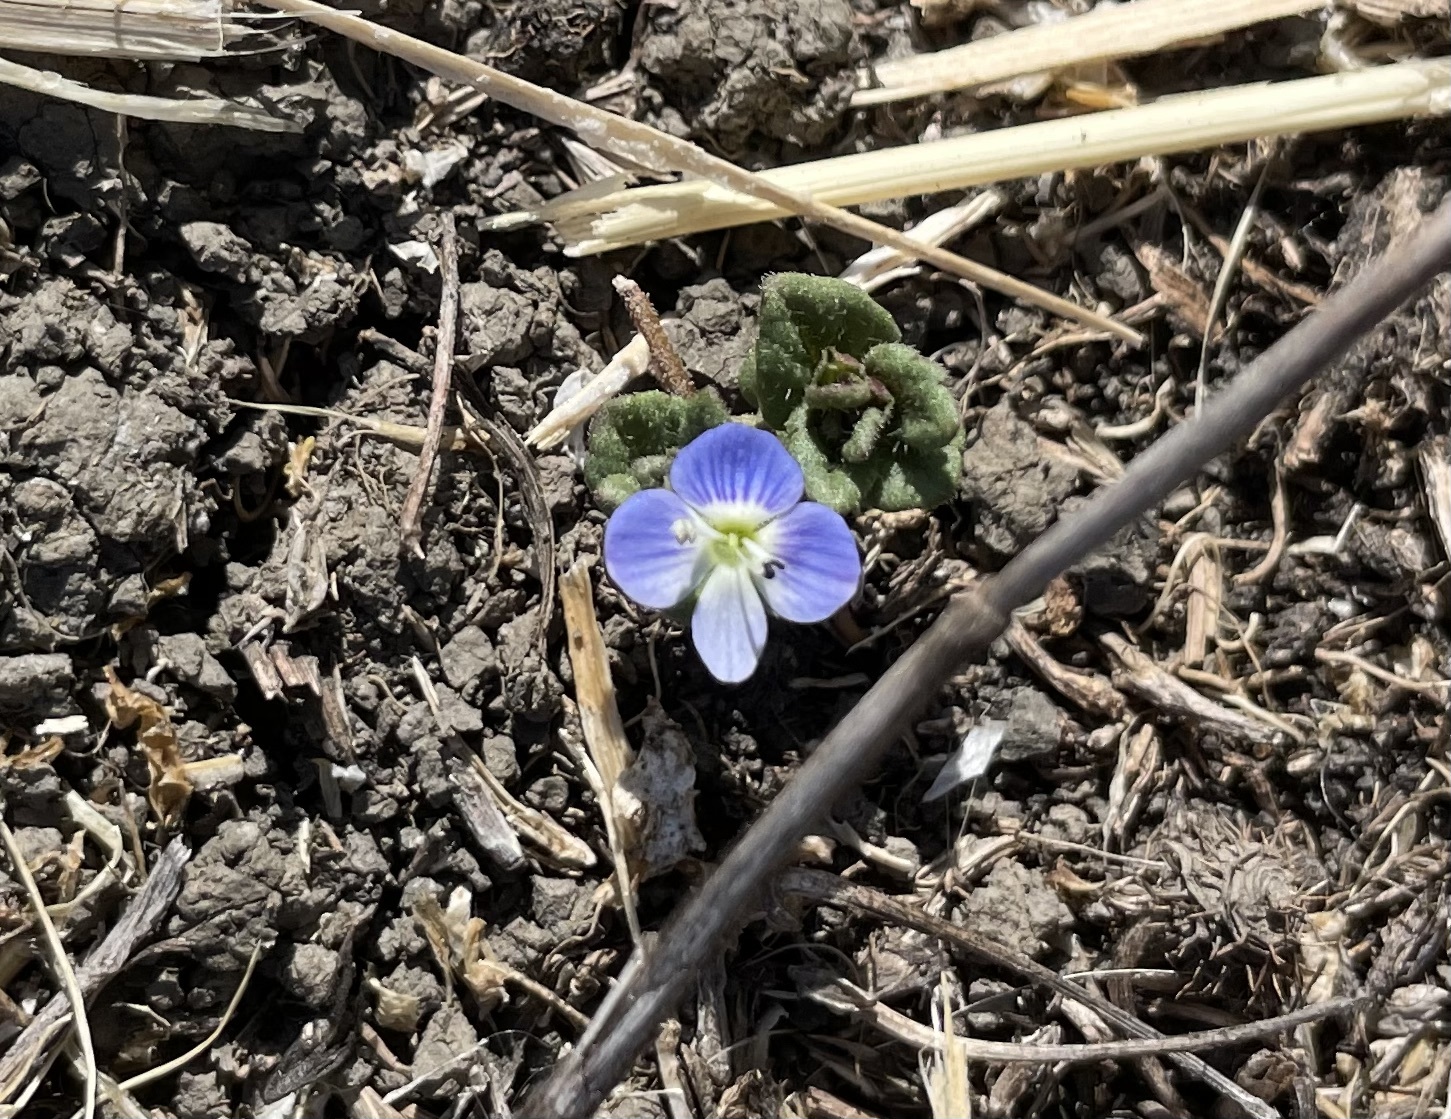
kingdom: Plantae
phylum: Tracheophyta
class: Magnoliopsida
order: Lamiales
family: Plantaginaceae
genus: Veronica
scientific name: Veronica persica
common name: Common field-speedwell
